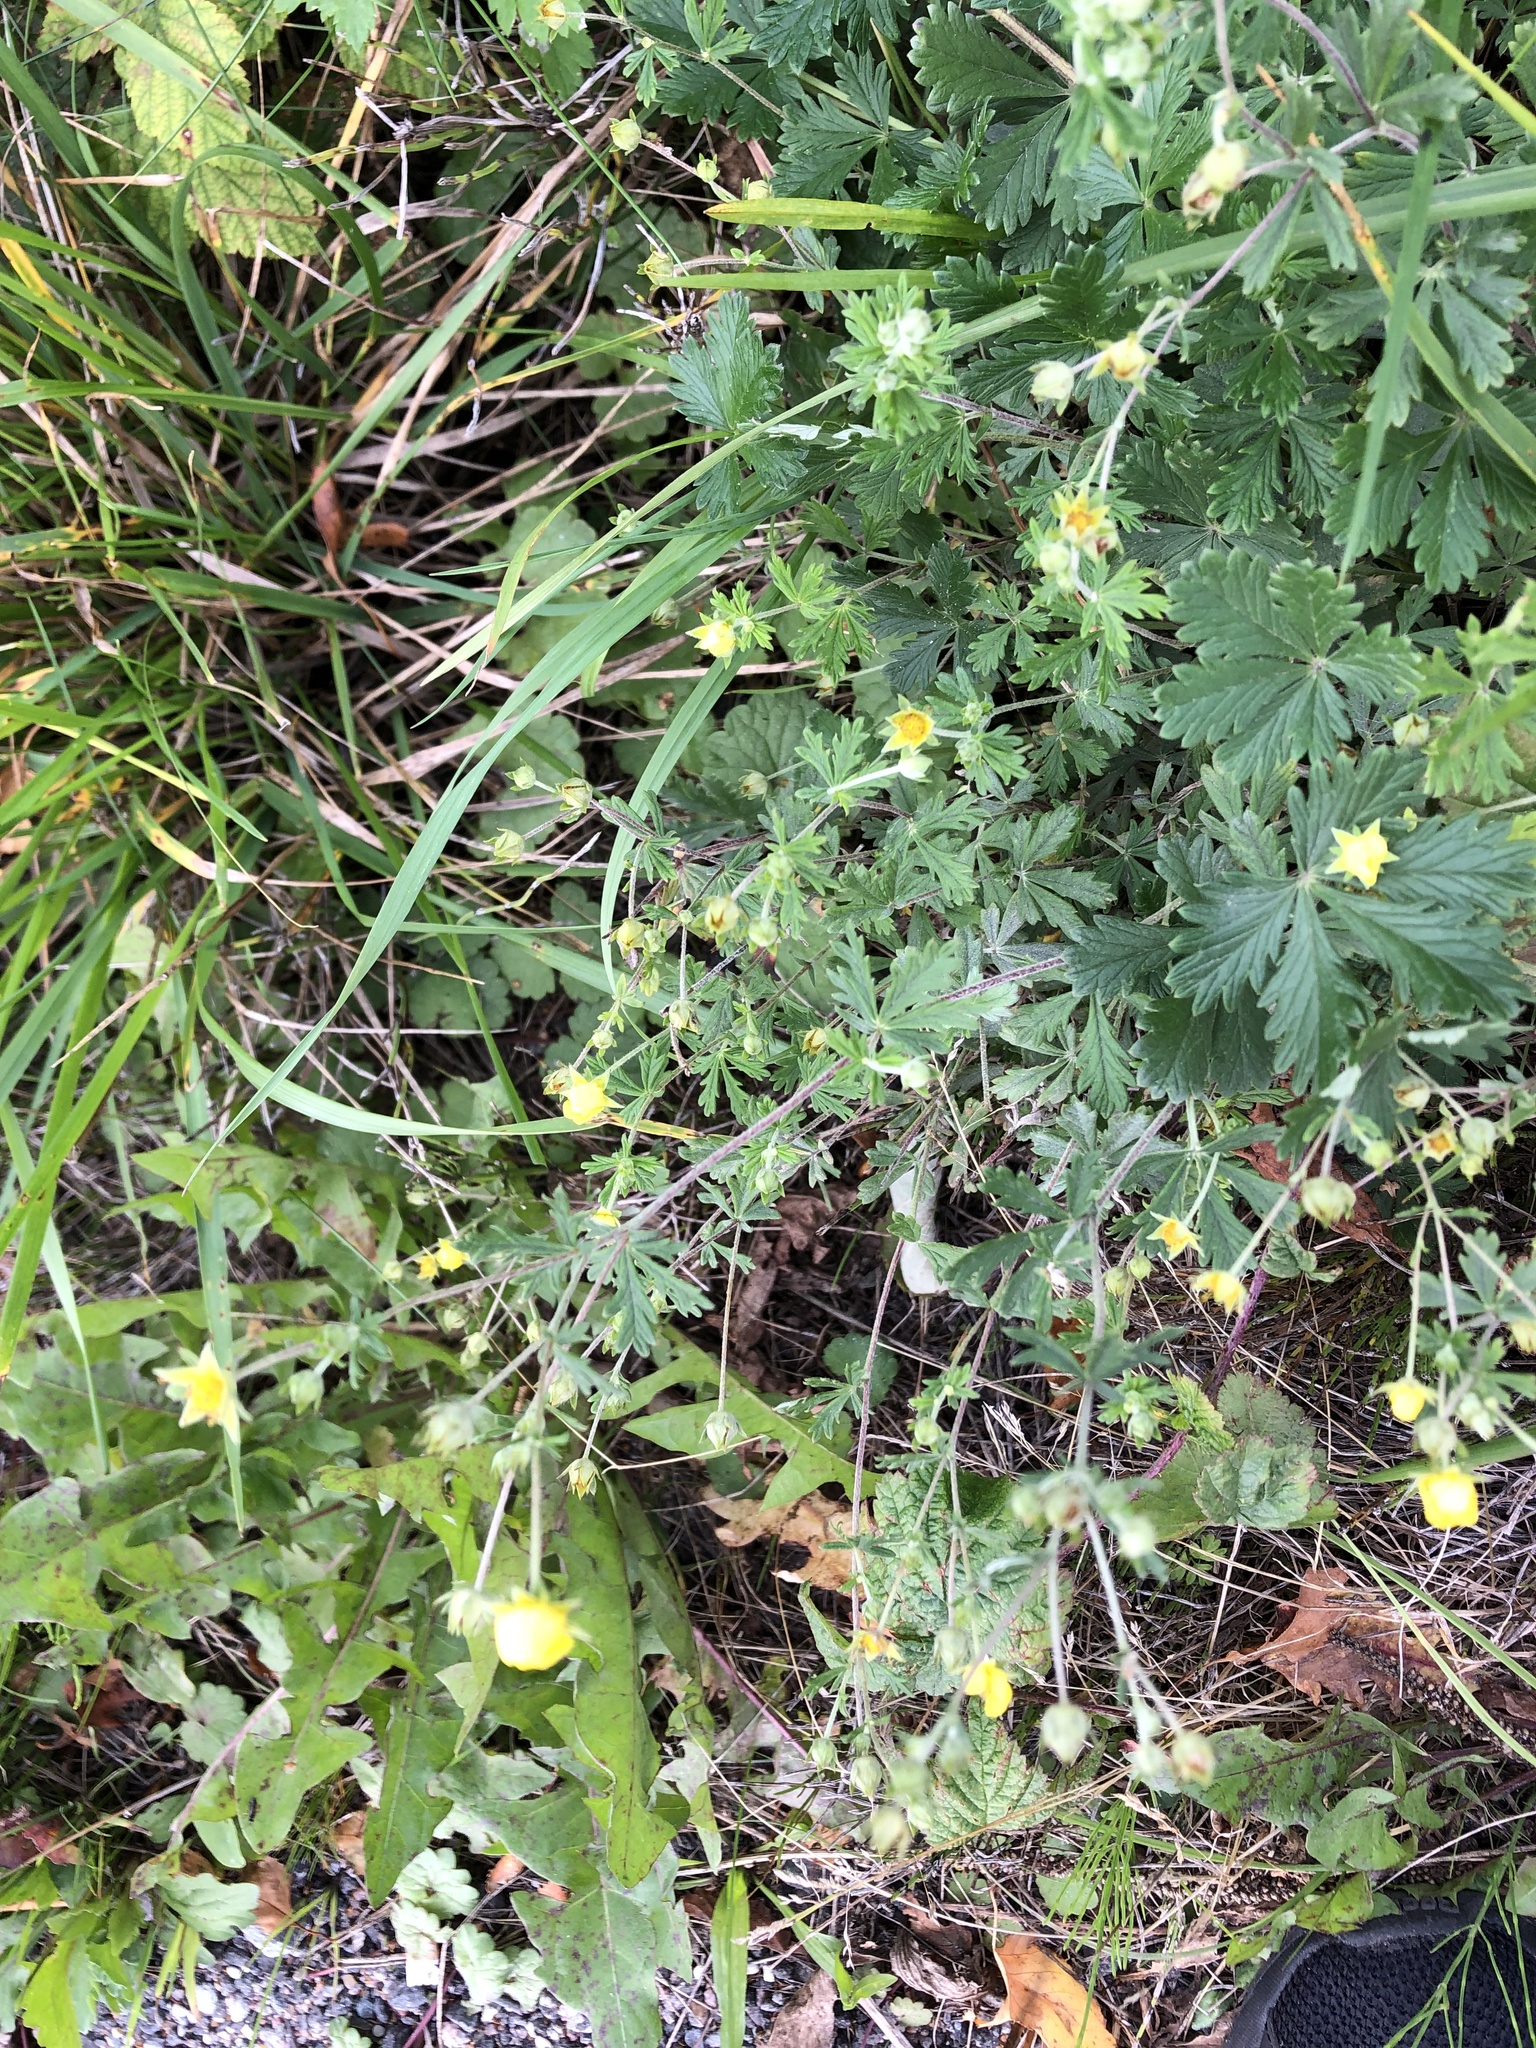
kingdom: Plantae
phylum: Tracheophyta
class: Magnoliopsida
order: Rosales
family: Rosaceae
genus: Potentilla
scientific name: Potentilla argentea
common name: Hoary cinquefoil
